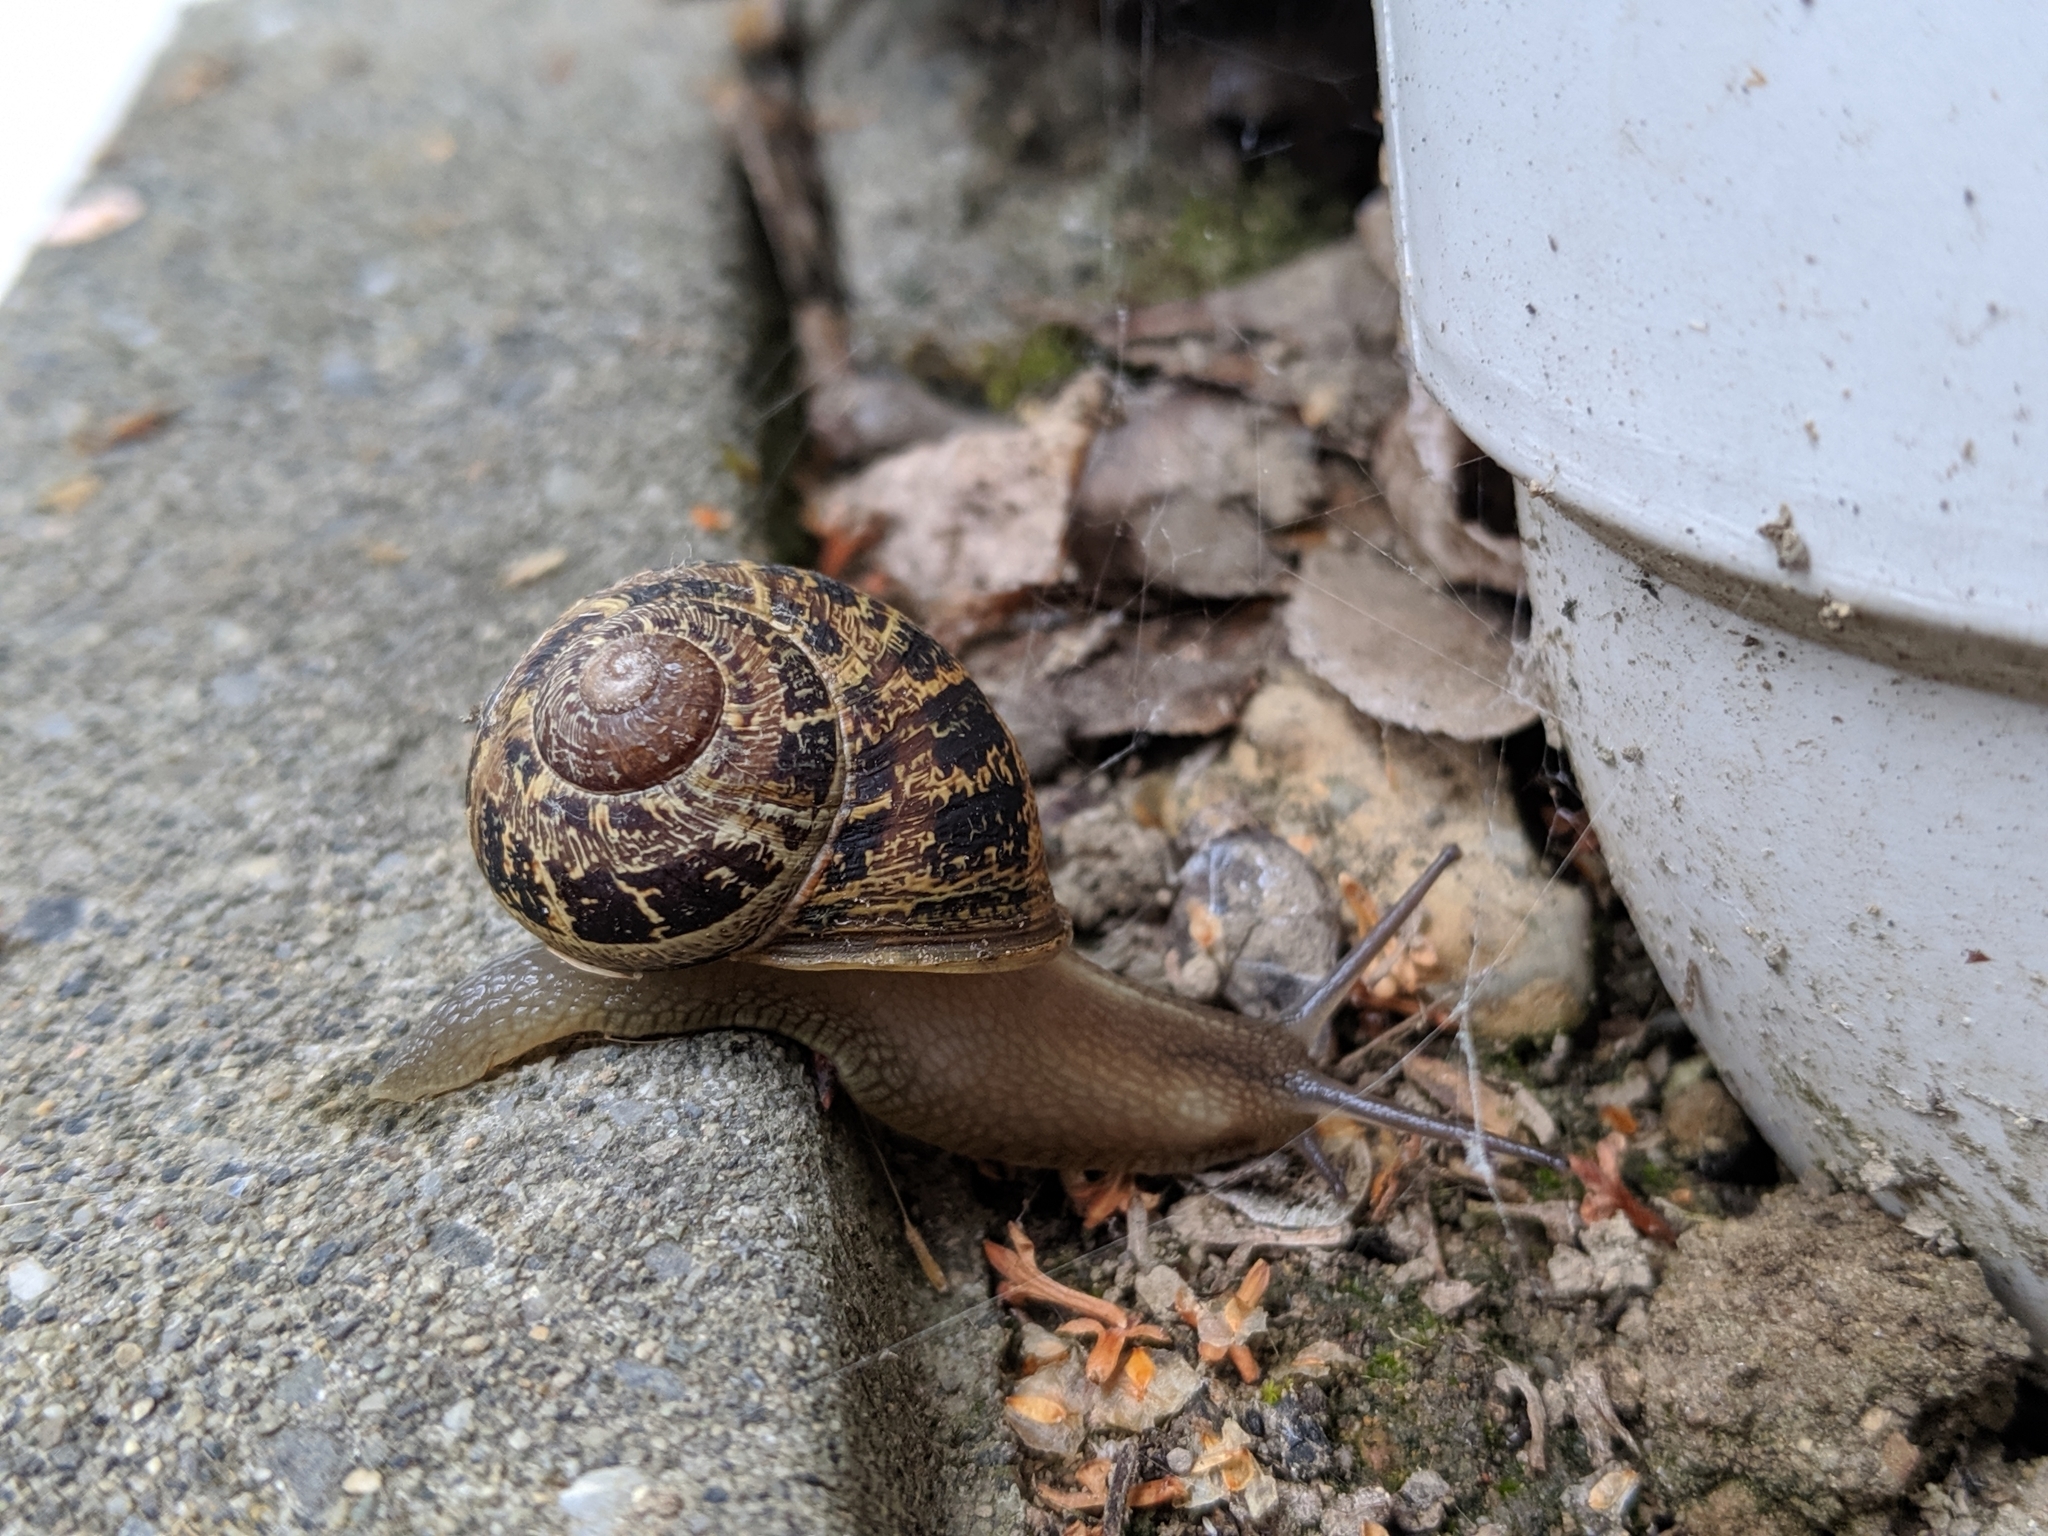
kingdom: Animalia
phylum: Mollusca
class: Gastropoda
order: Stylommatophora
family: Helicidae
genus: Cornu
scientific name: Cornu aspersum
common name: Brown garden snail
